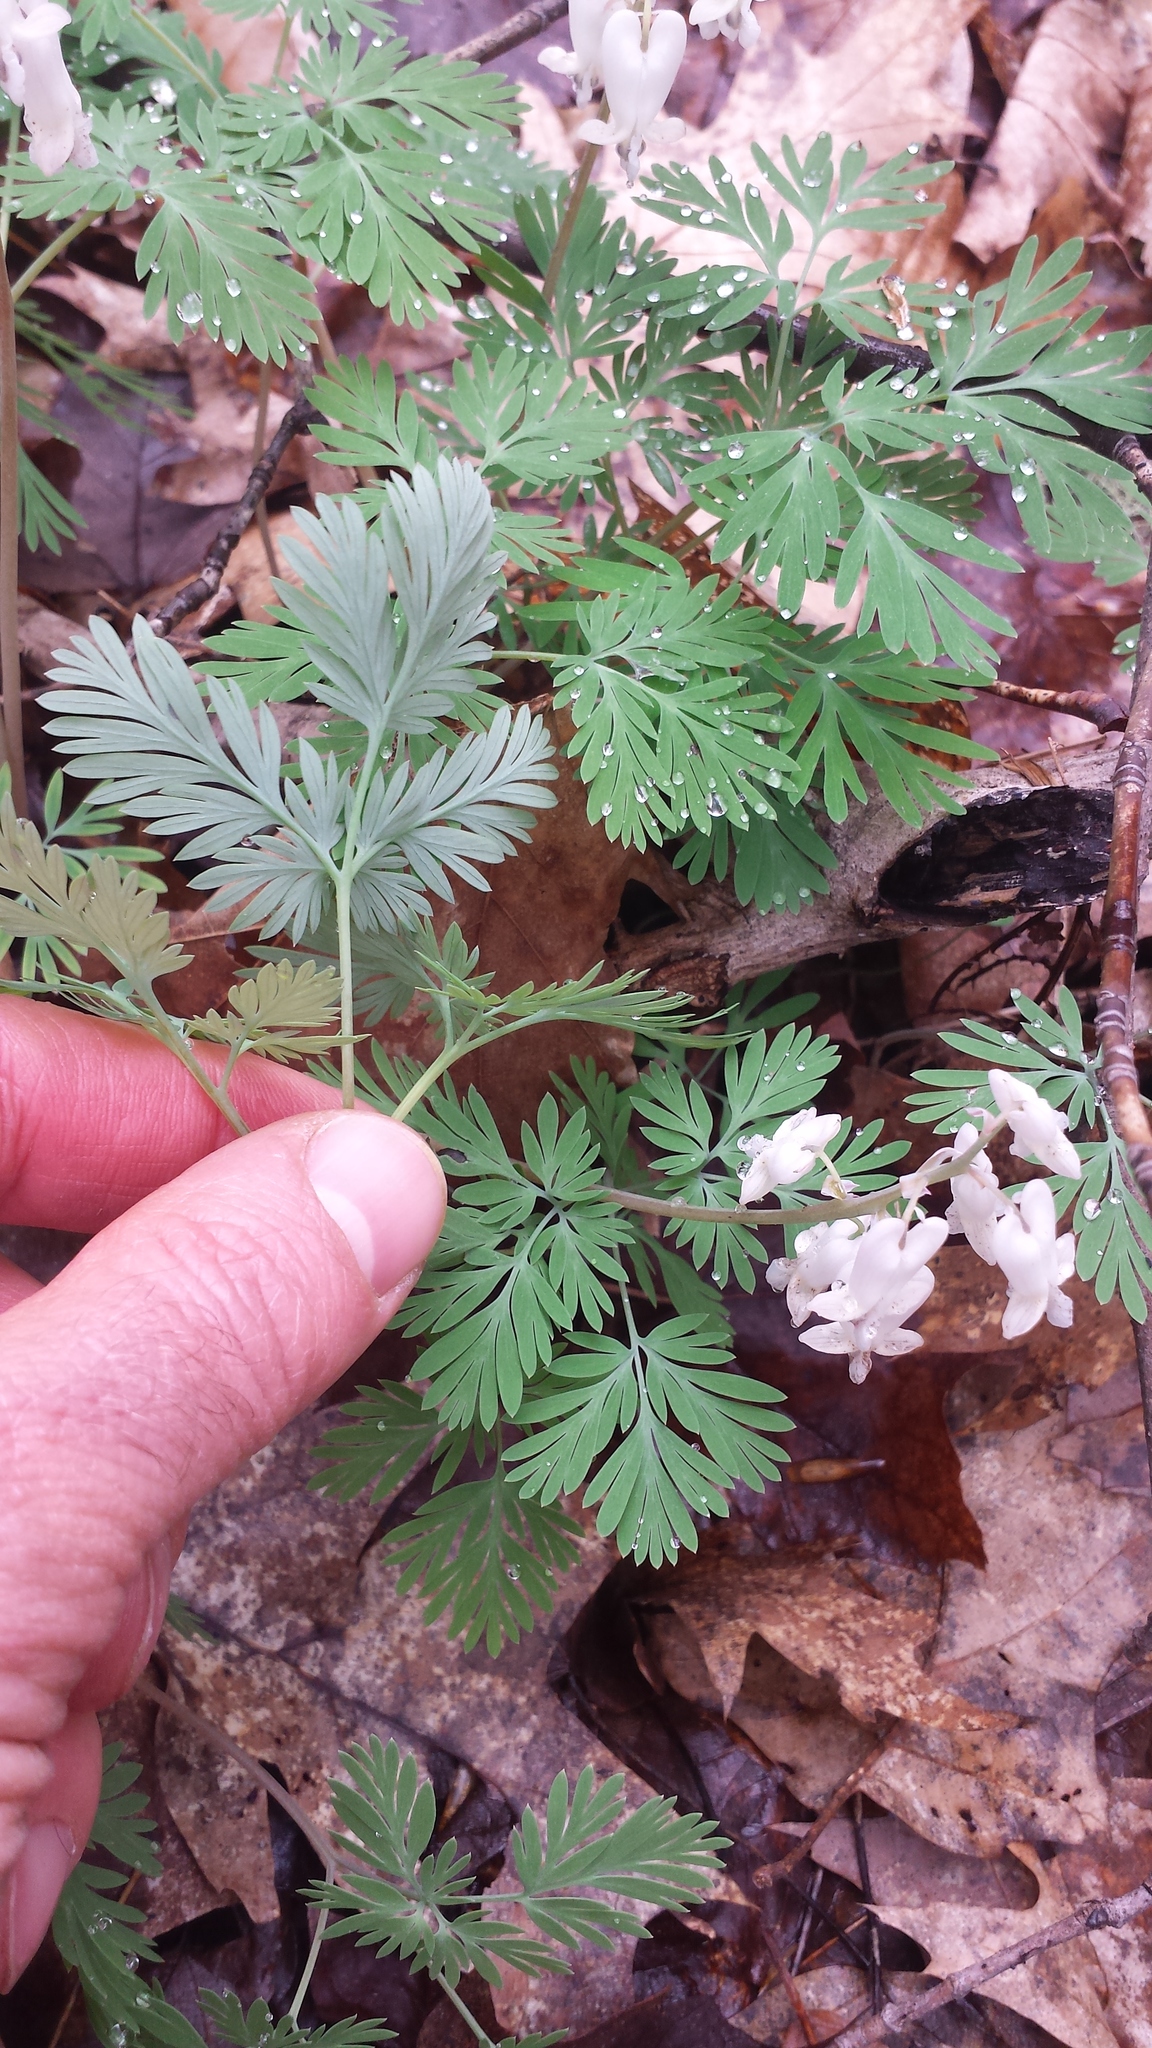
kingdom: Plantae
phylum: Tracheophyta
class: Magnoliopsida
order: Ranunculales
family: Papaveraceae
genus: Dicentra
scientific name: Dicentra canadensis
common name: Squirrel-corn
